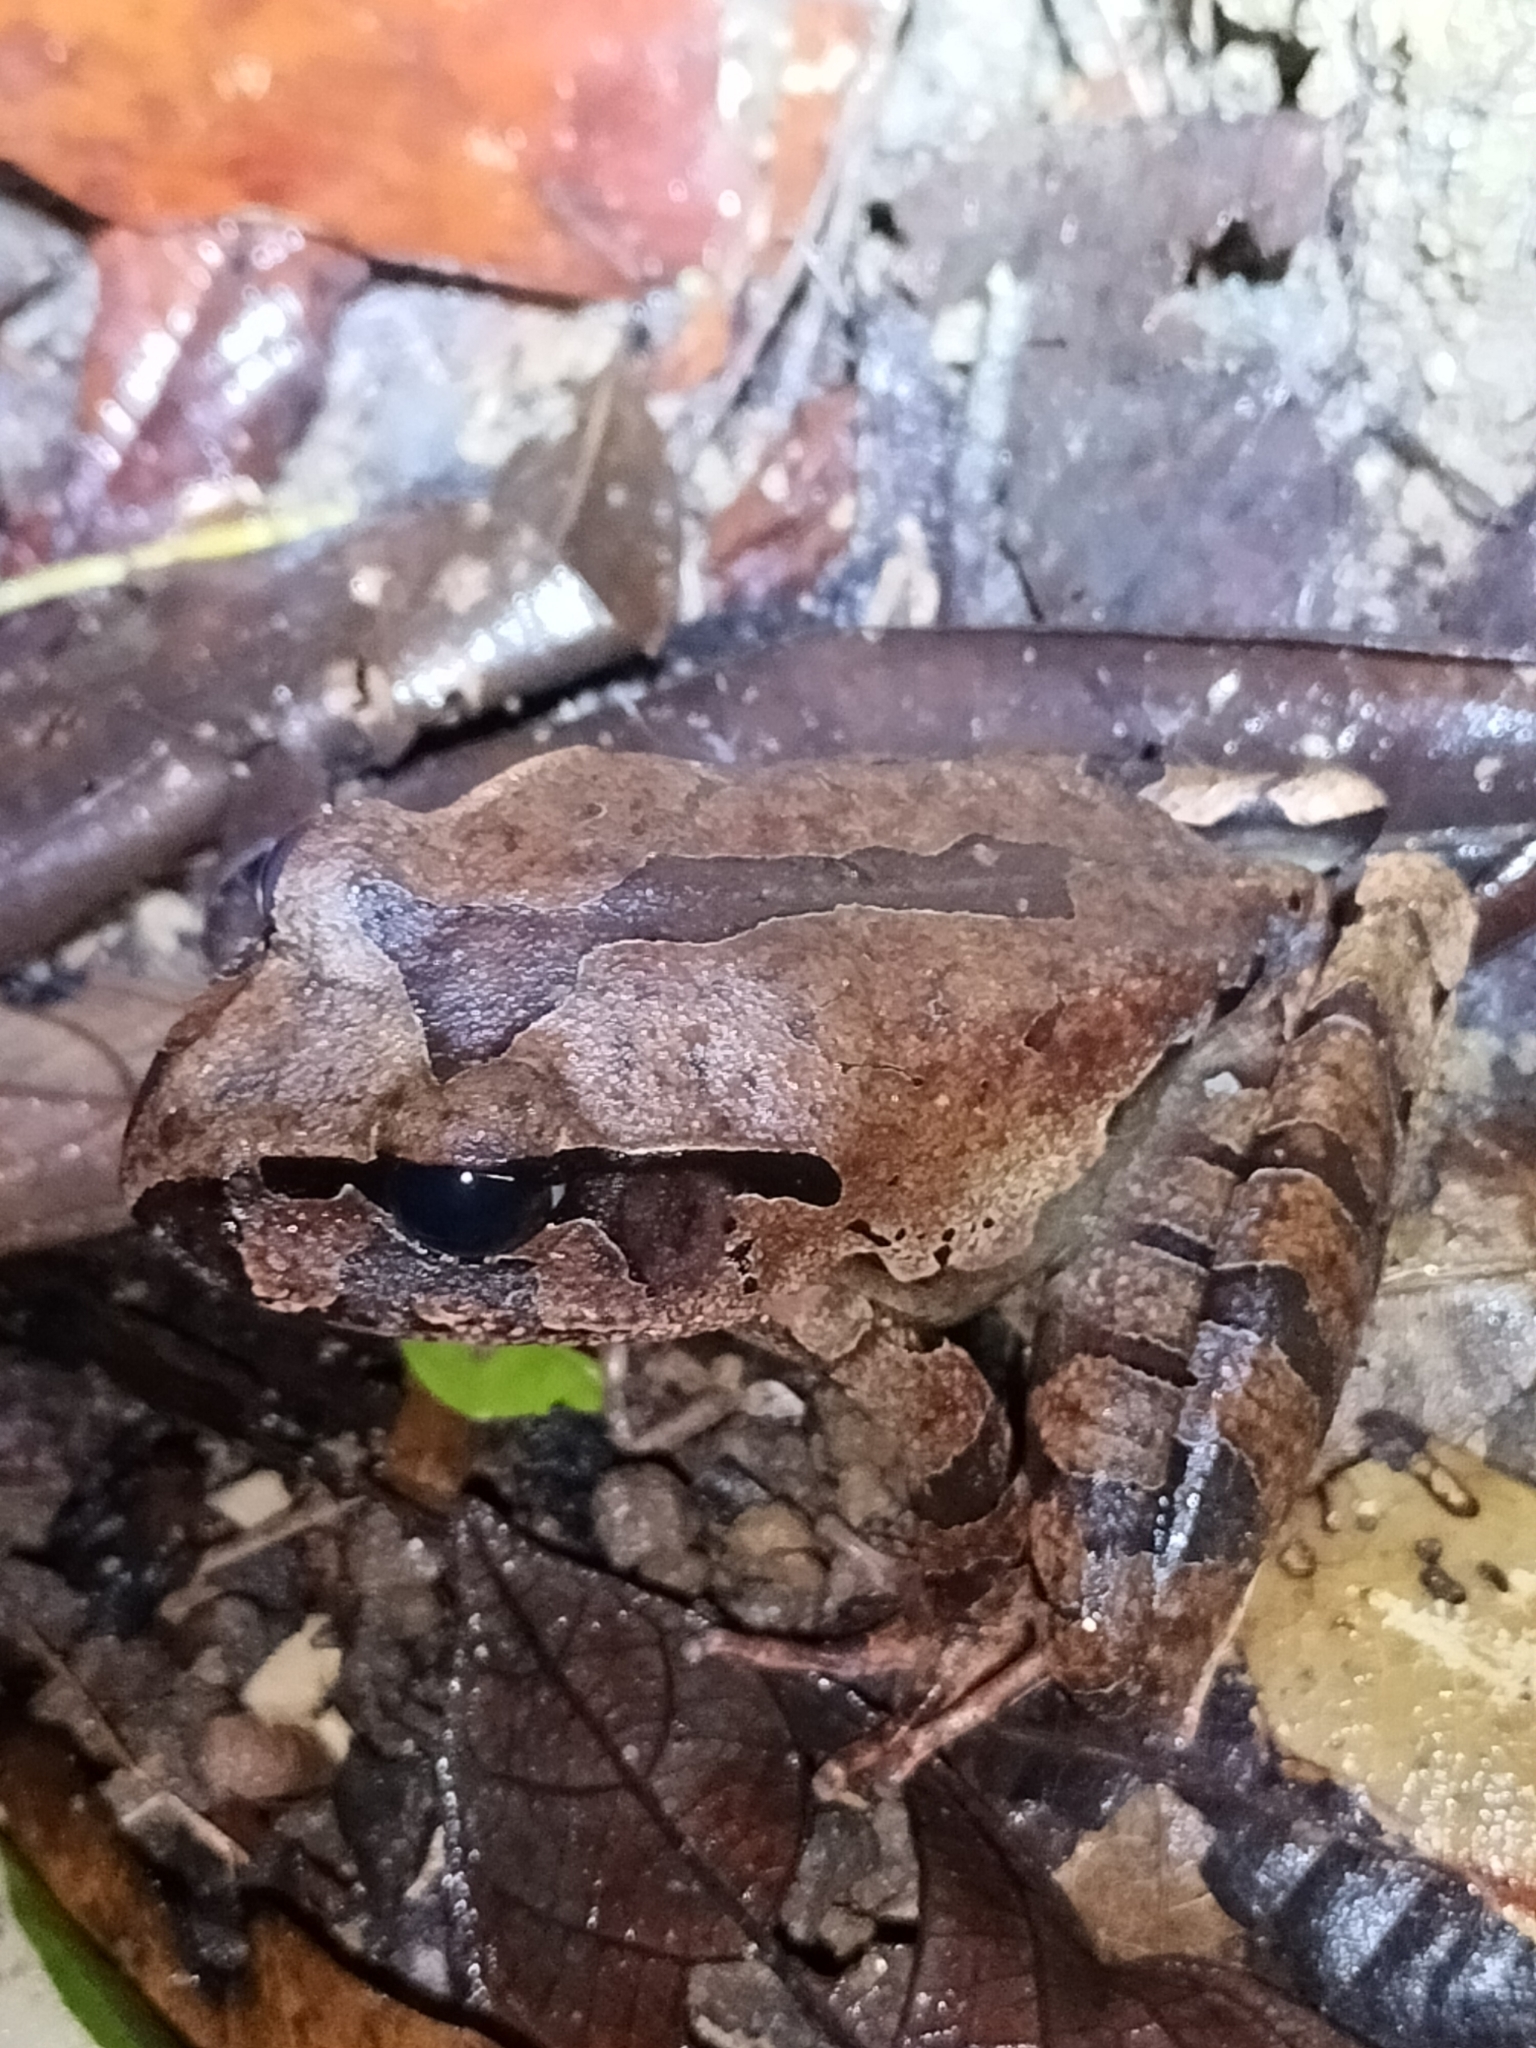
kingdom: Animalia
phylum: Chordata
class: Amphibia
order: Anura
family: Myobatrachidae
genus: Mixophyes
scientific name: Mixophyes schevilli
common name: Northern barred frog
